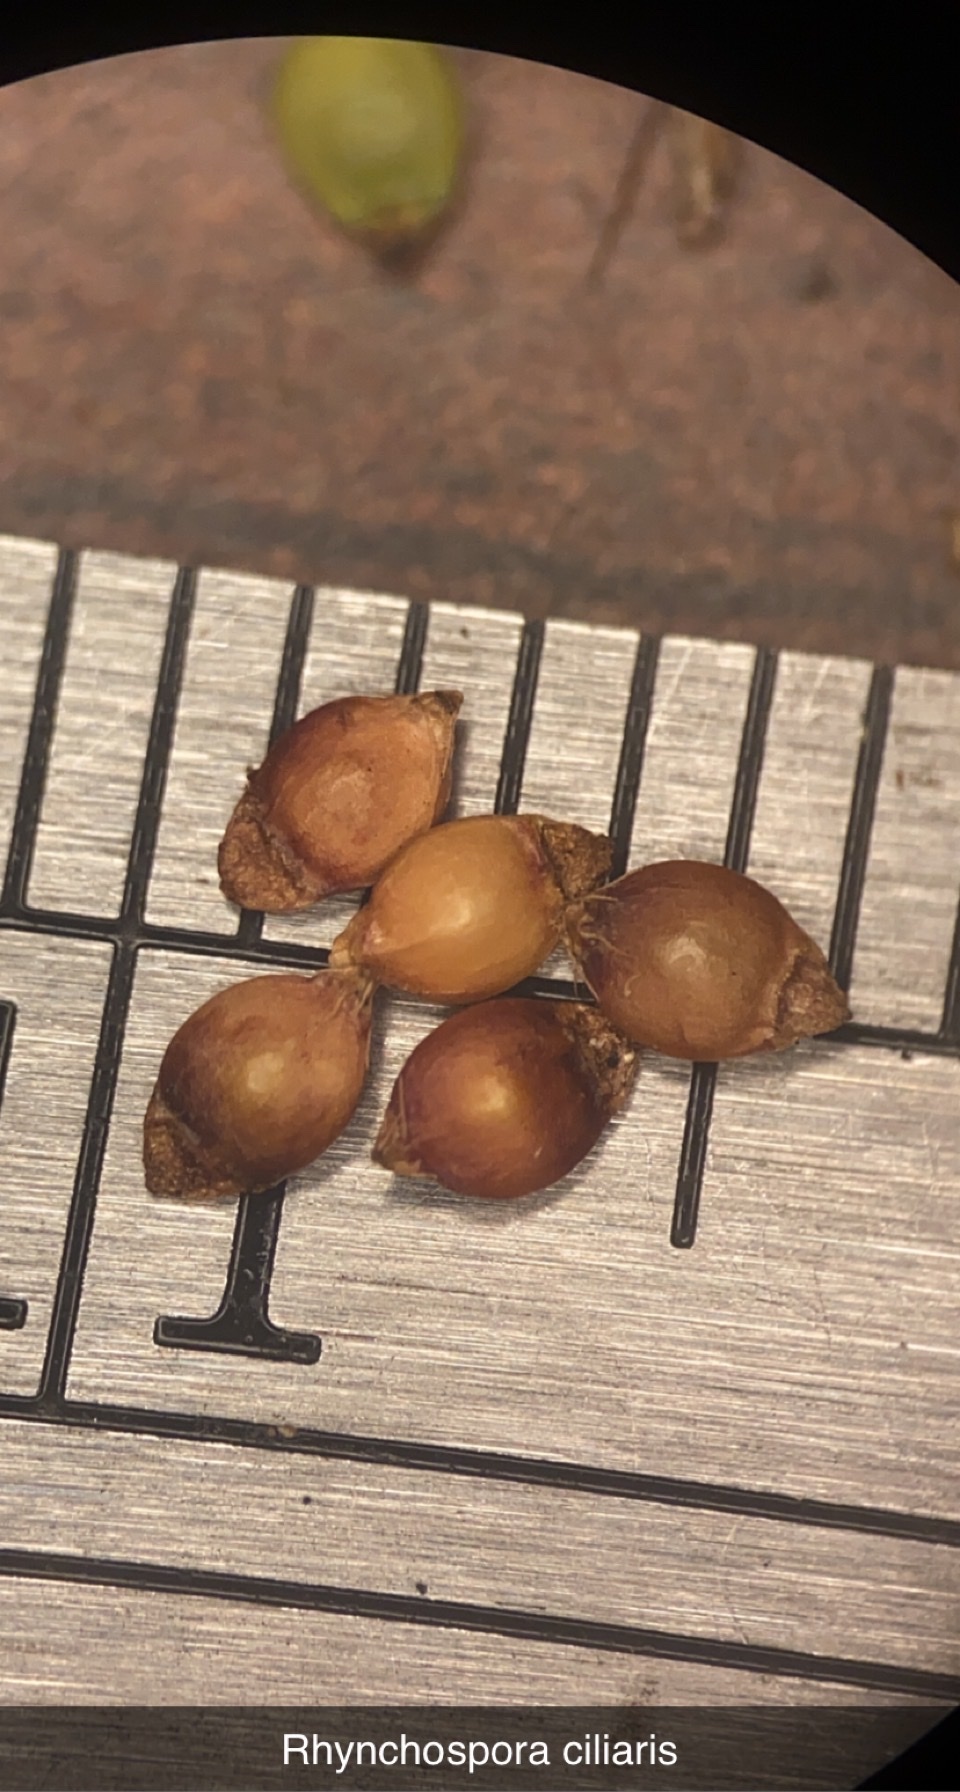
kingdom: Plantae
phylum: Tracheophyta
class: Liliopsida
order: Poales
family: Cyperaceae
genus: Rhynchospora
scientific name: Rhynchospora ciliaris
